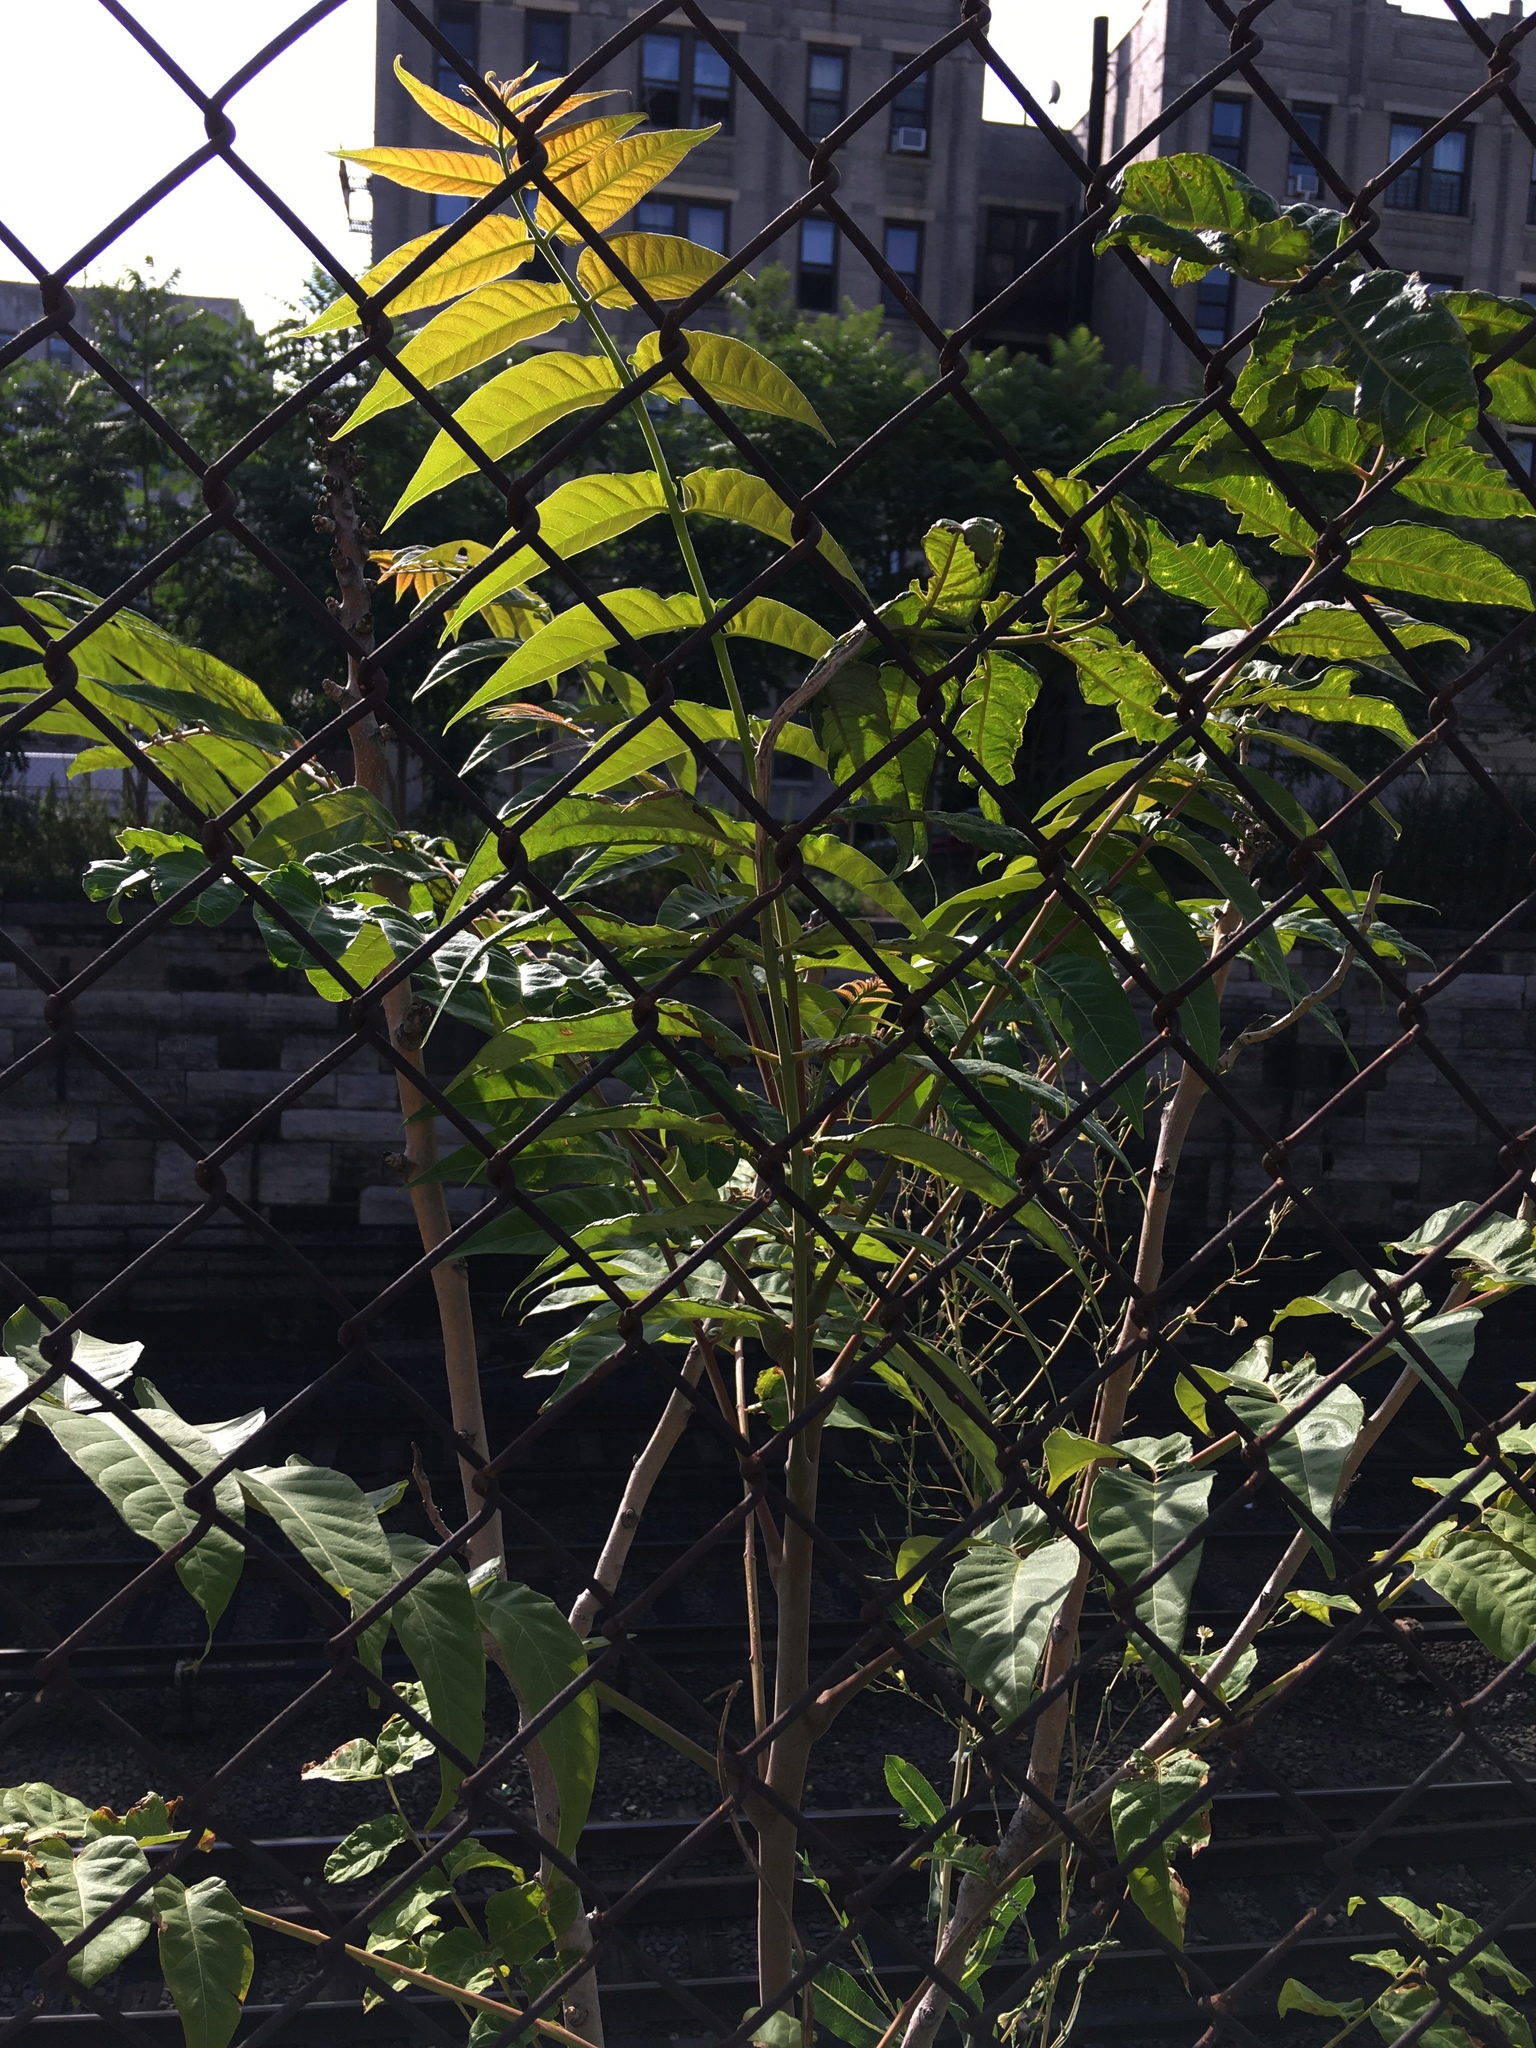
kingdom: Plantae
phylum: Tracheophyta
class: Magnoliopsida
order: Sapindales
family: Simaroubaceae
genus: Ailanthus
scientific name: Ailanthus altissima
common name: Tree-of-heaven
